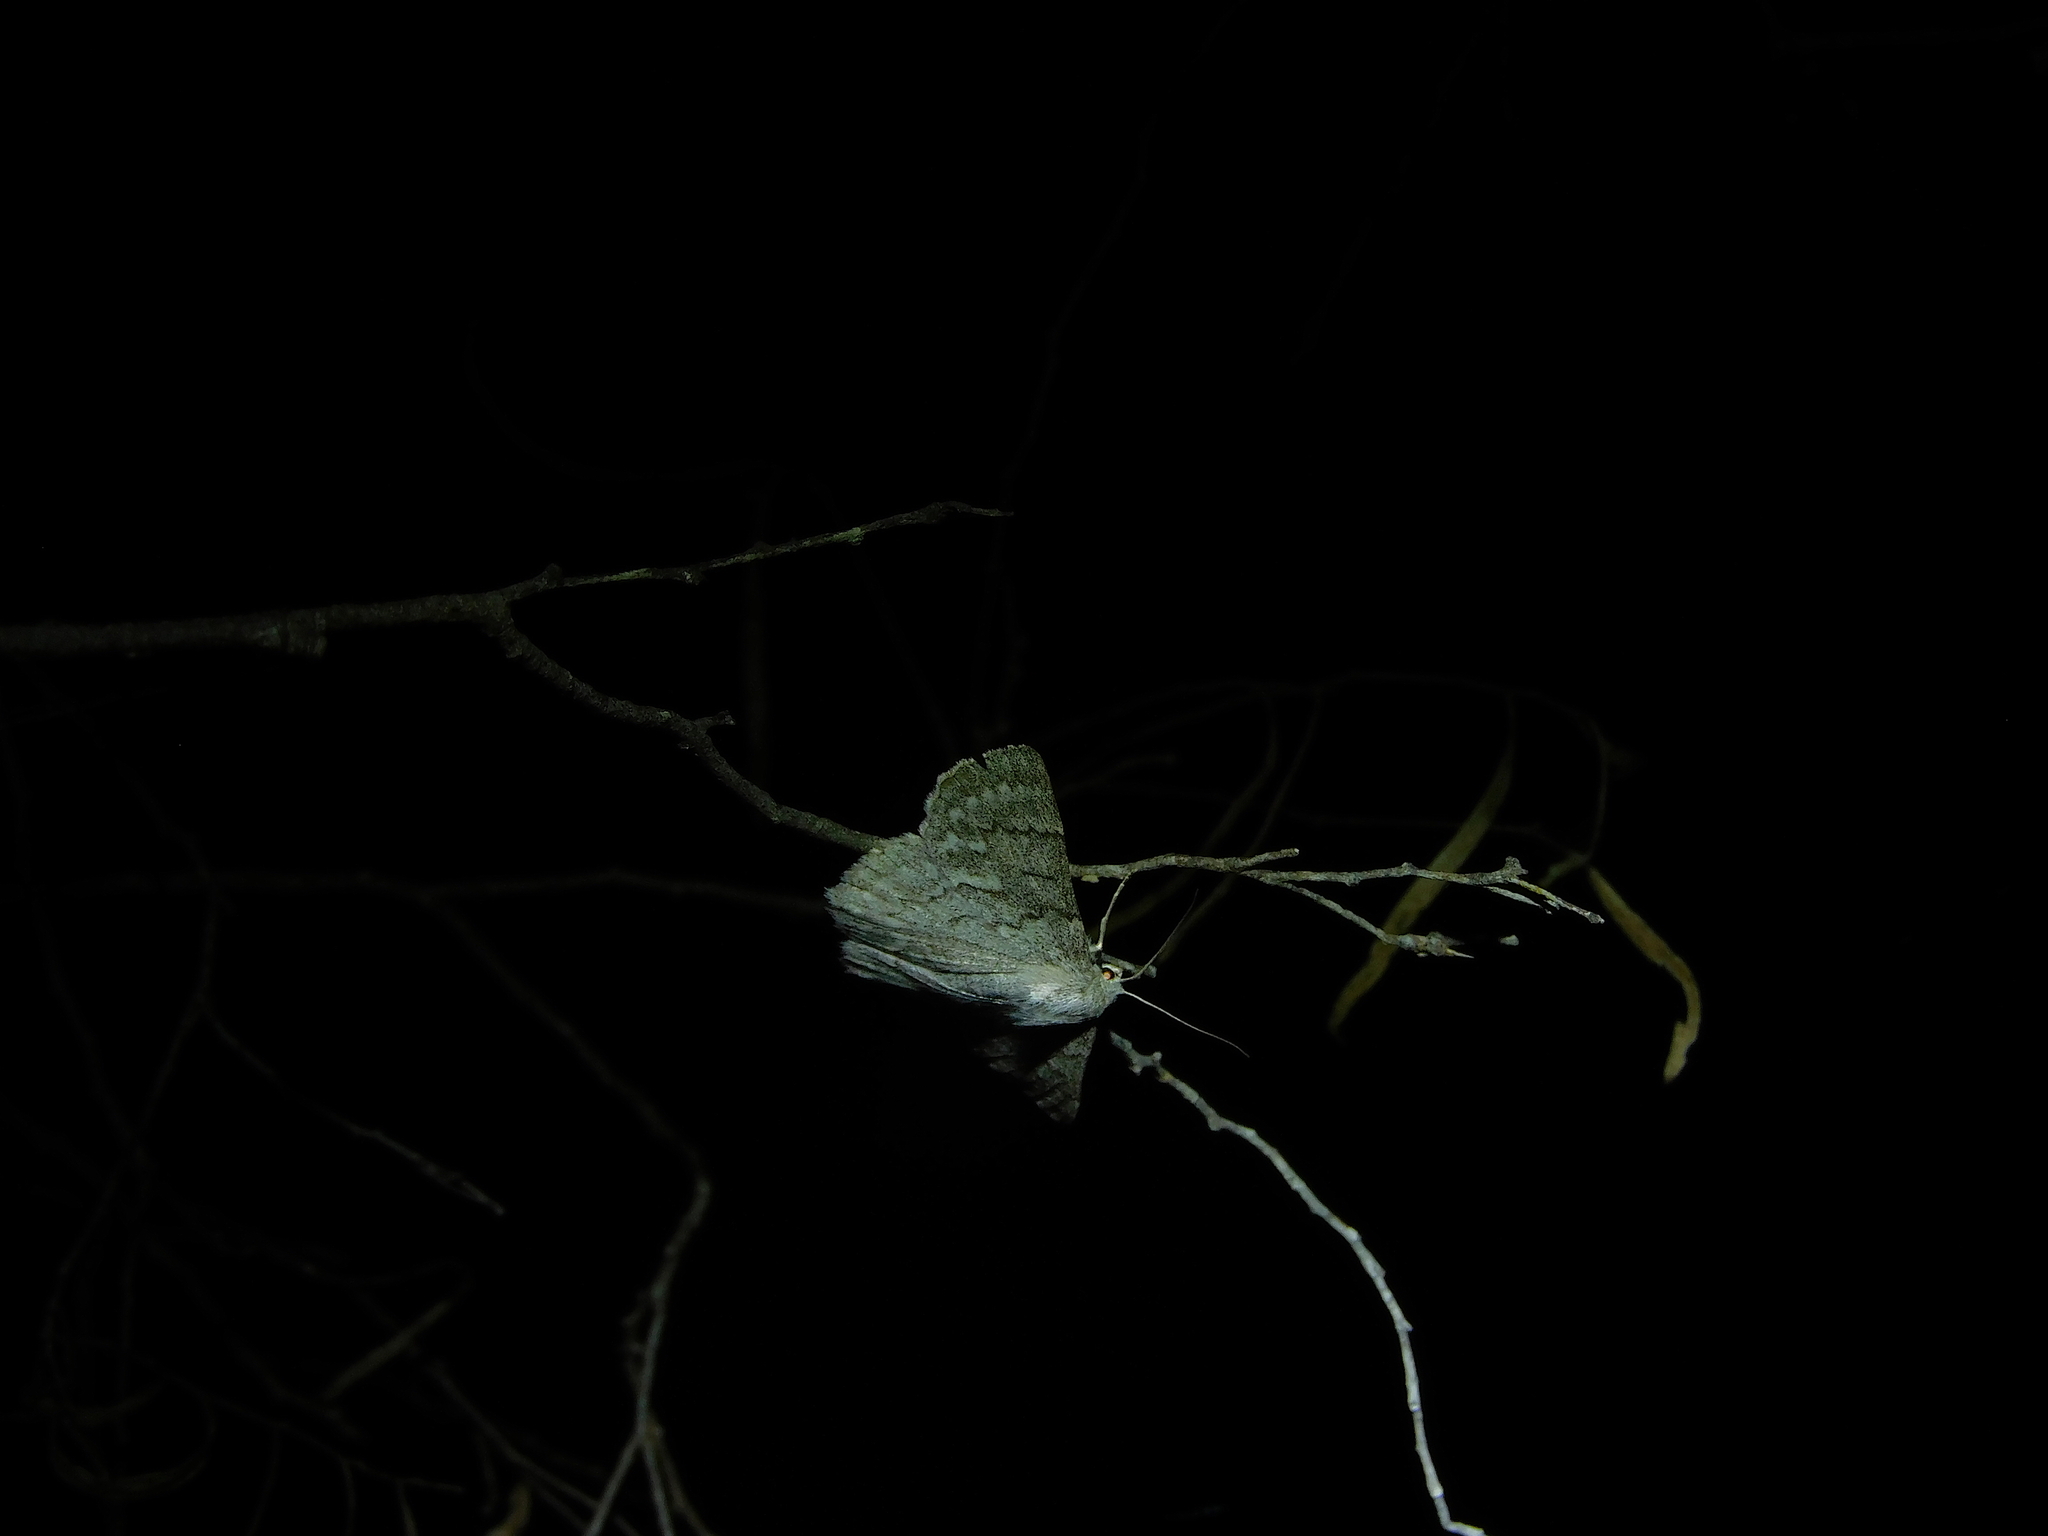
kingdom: Animalia
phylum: Arthropoda
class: Insecta
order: Lepidoptera
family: Geometridae
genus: Crypsiphona
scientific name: Crypsiphona
